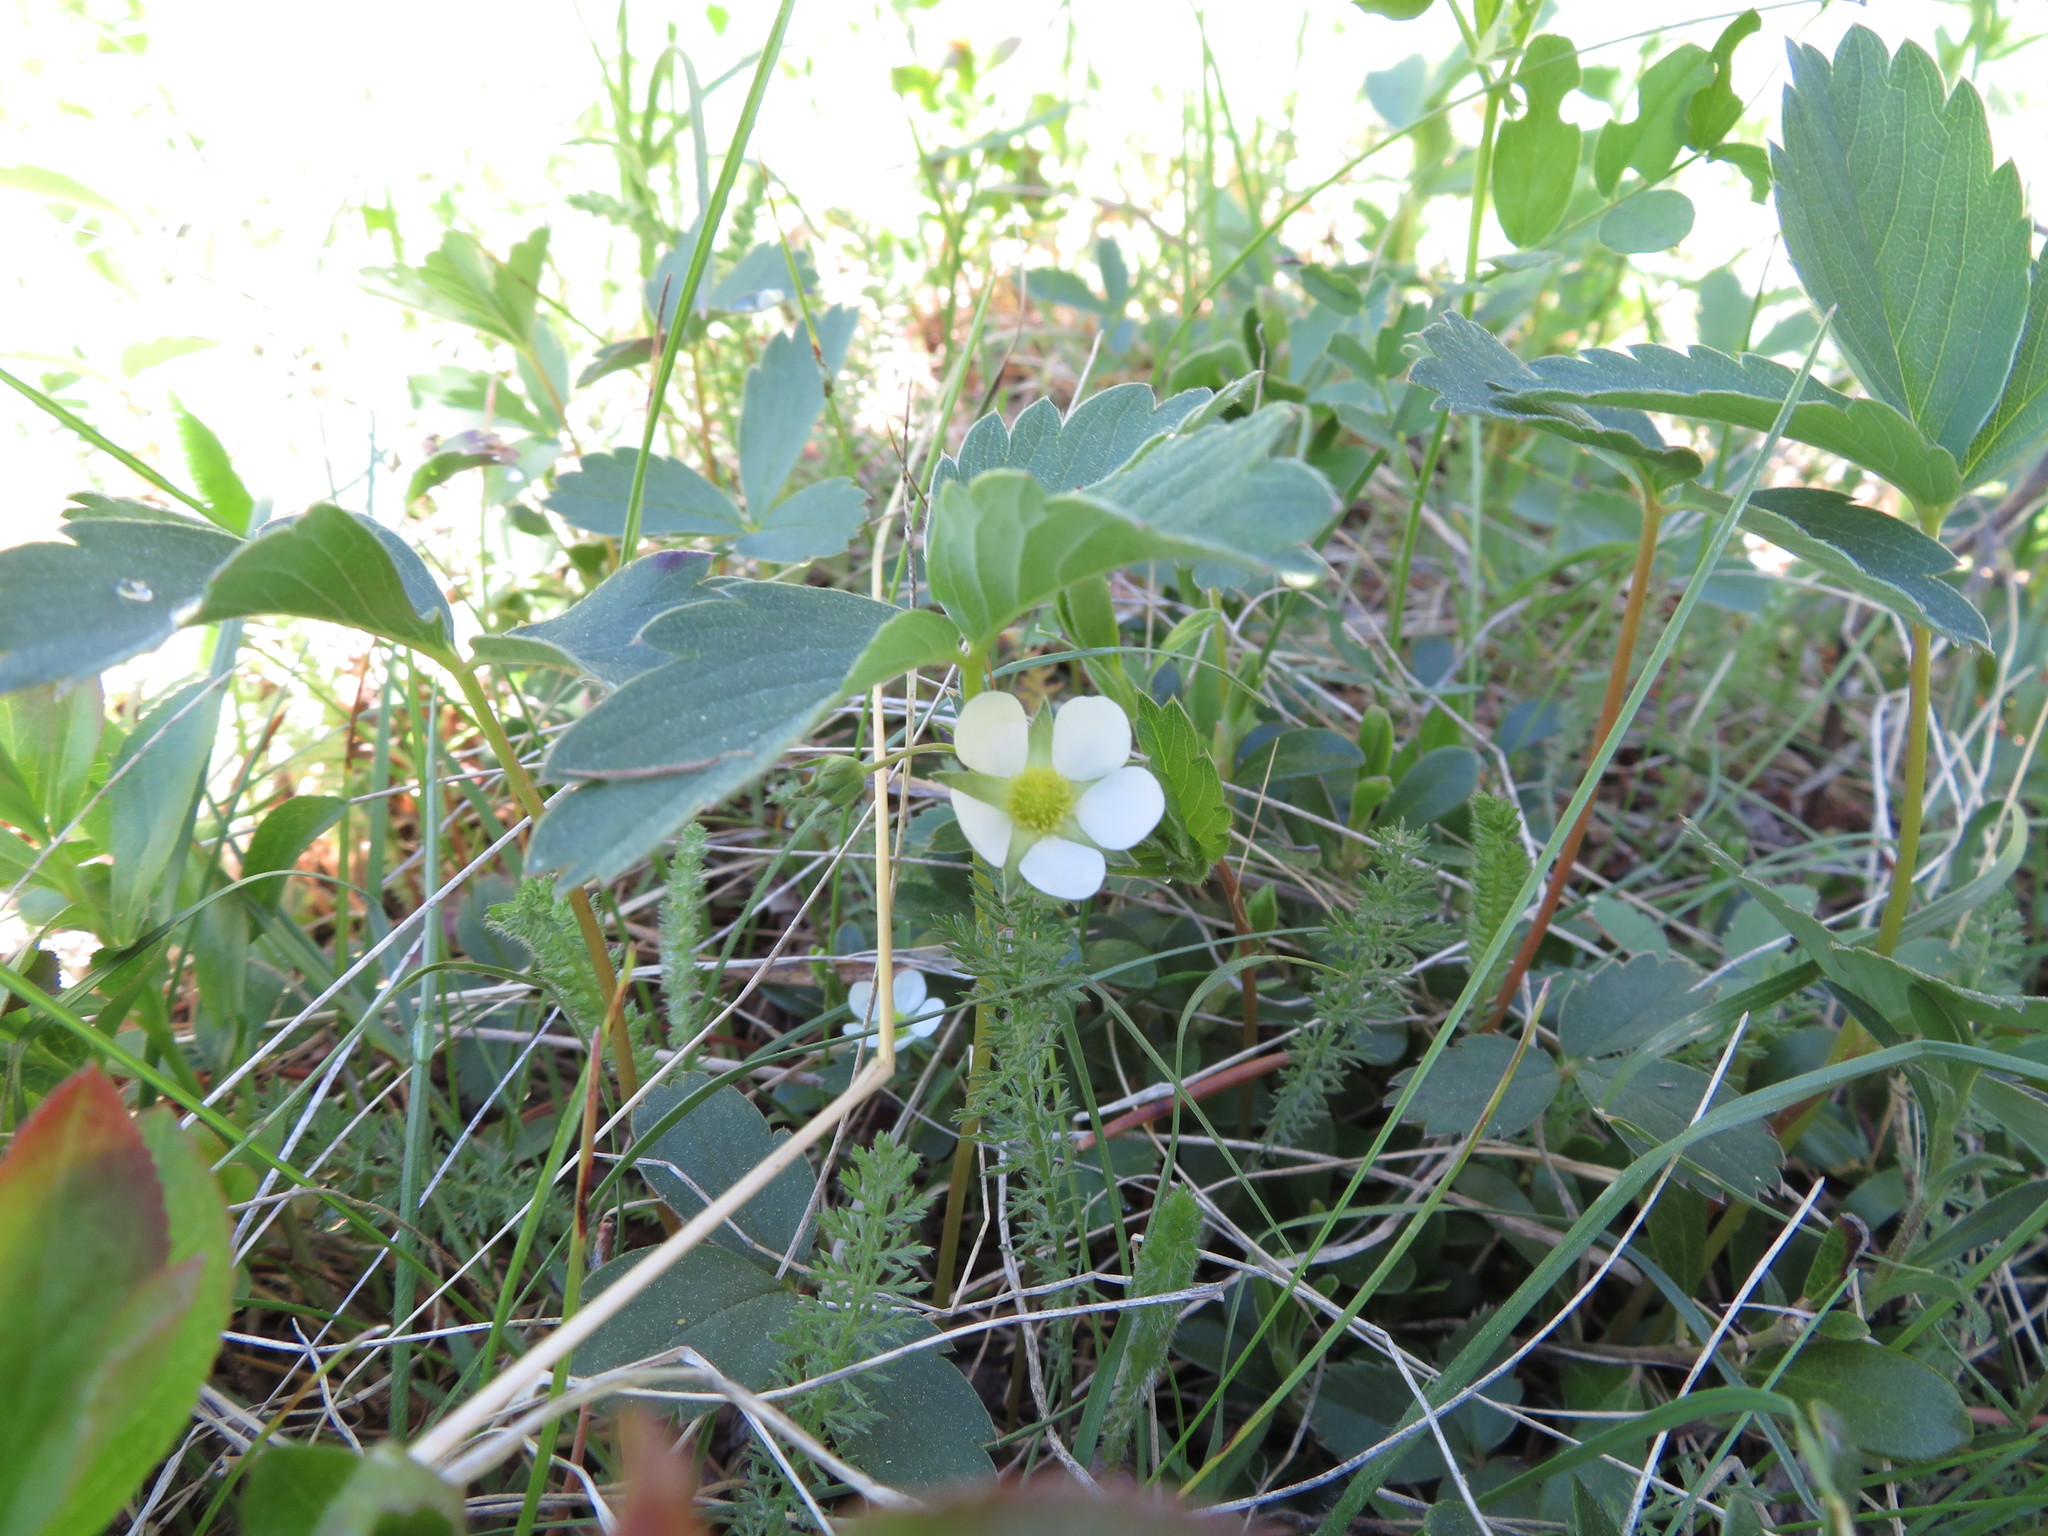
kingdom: Plantae
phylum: Tracheophyta
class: Magnoliopsida
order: Rosales
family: Rosaceae
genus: Fragaria
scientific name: Fragaria virginiana
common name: Thickleaved wild strawberry
